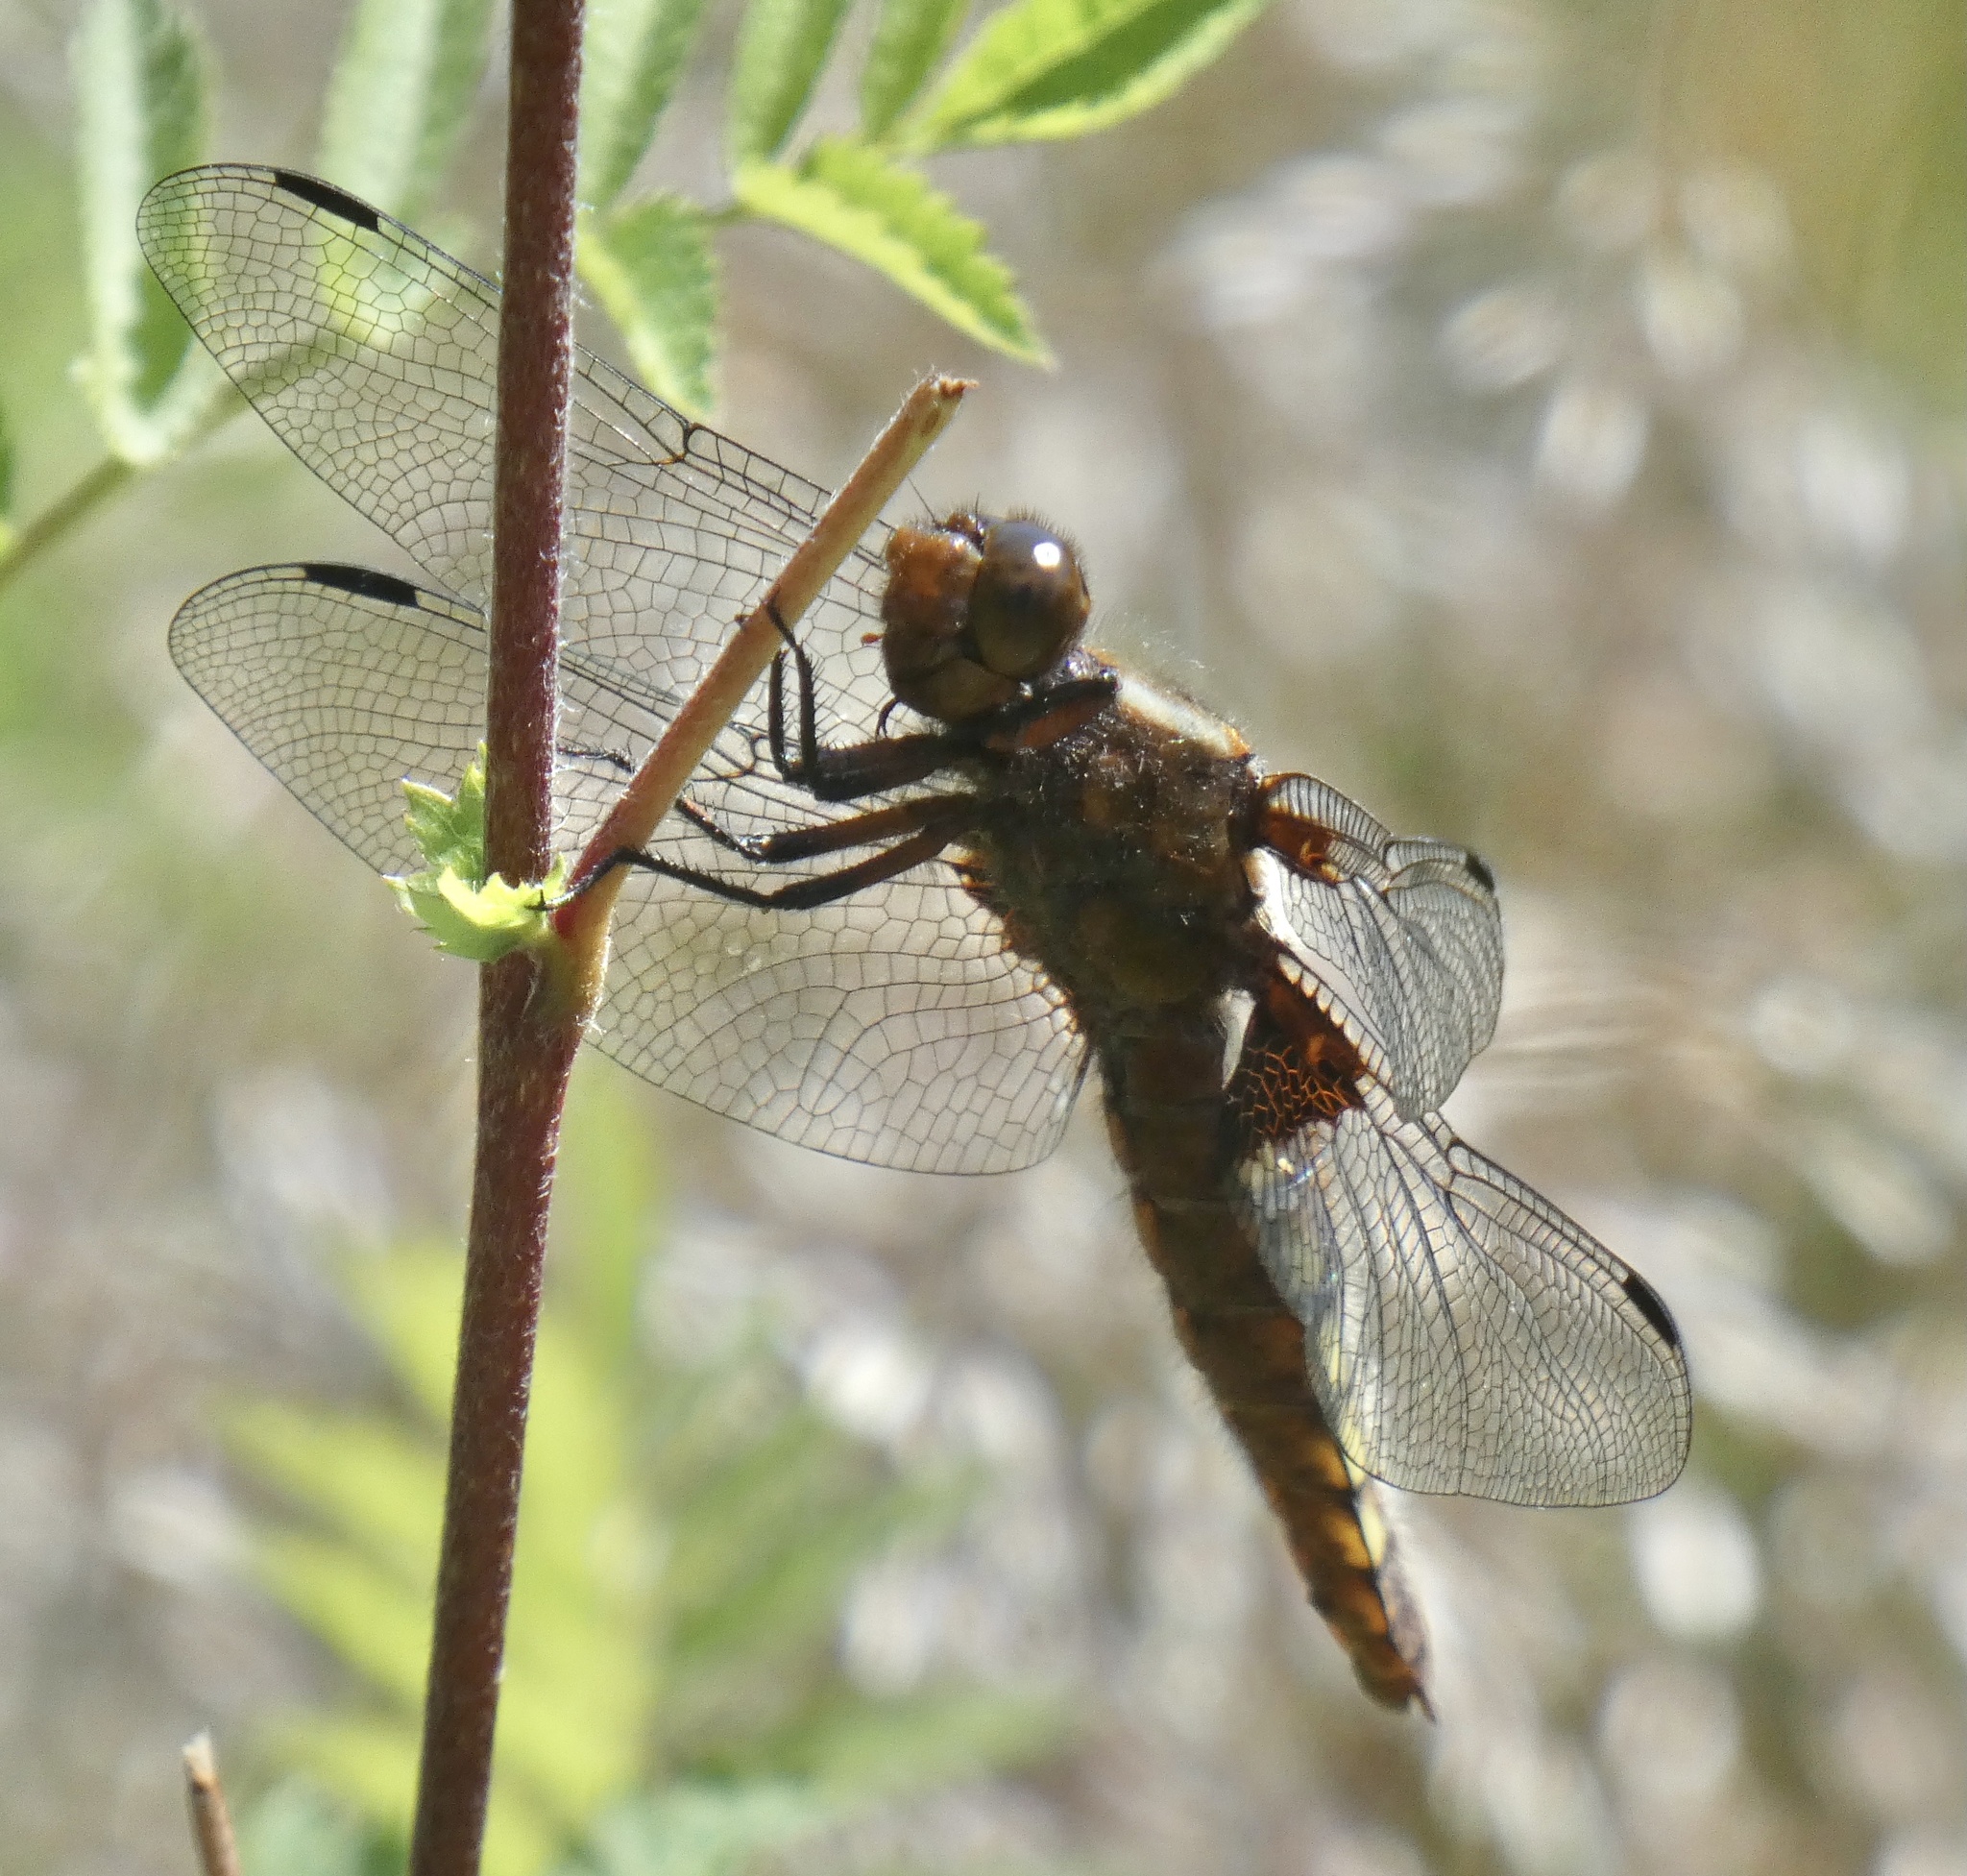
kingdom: Animalia
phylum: Arthropoda
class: Insecta
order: Odonata
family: Libellulidae
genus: Libellula
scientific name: Libellula depressa
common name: Broad-bodied chaser
